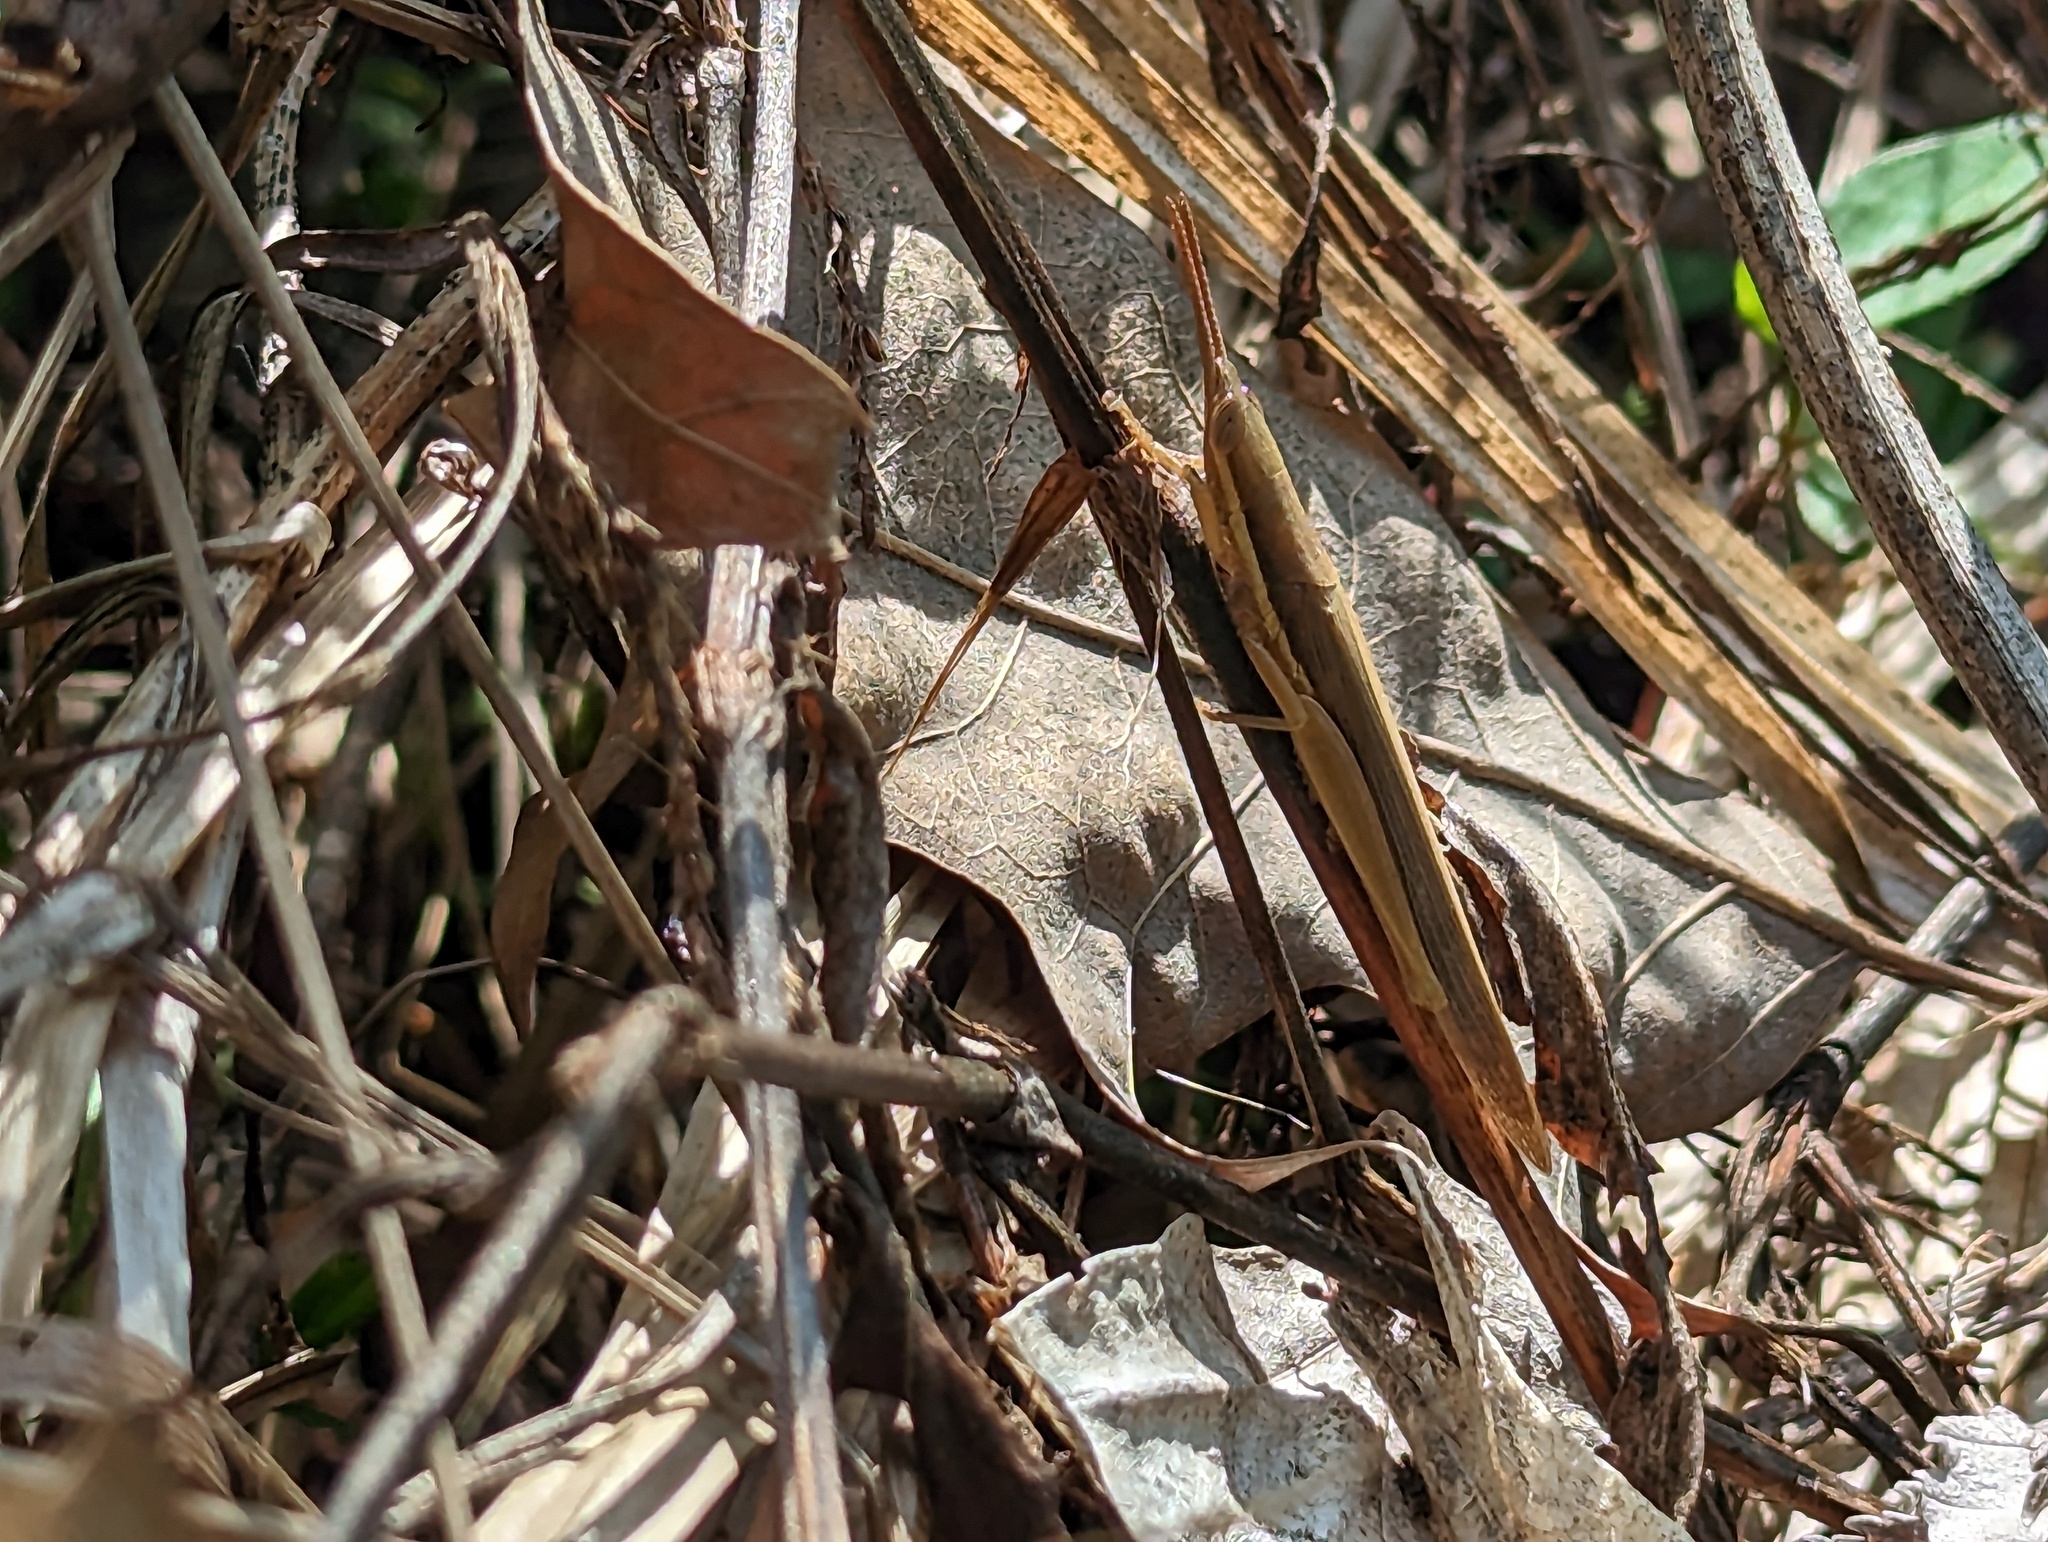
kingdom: Animalia
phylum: Arthropoda
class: Insecta
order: Orthoptera
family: Acrididae
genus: Leptysma
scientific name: Leptysma marginicollis
